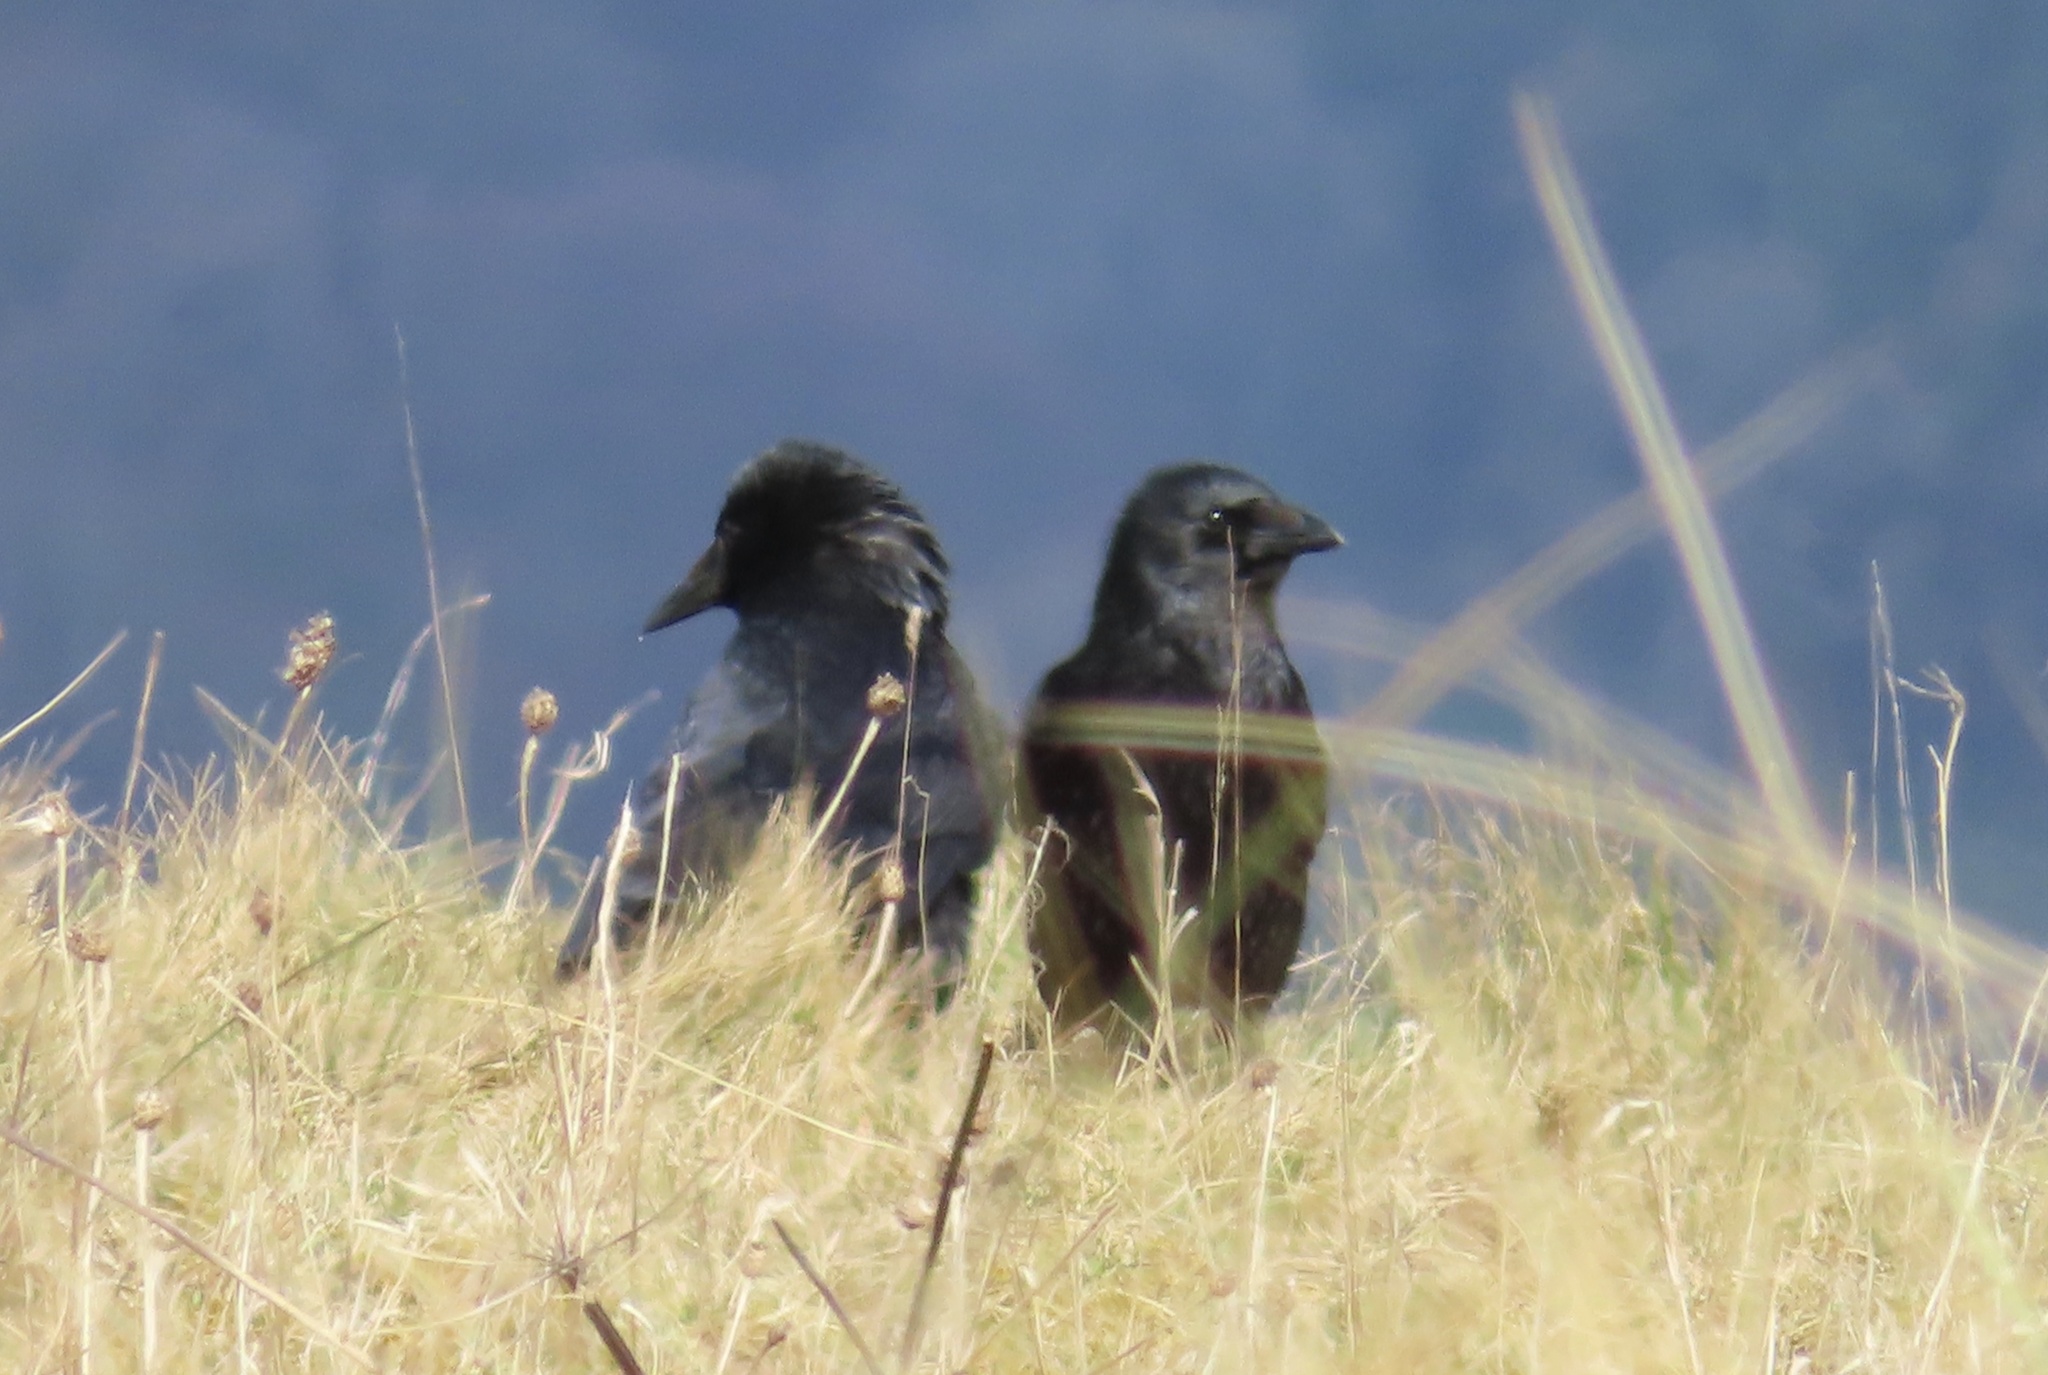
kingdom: Animalia
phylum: Chordata
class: Aves
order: Passeriformes
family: Corvidae
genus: Corvus
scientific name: Corvus corone
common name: Carrion crow
